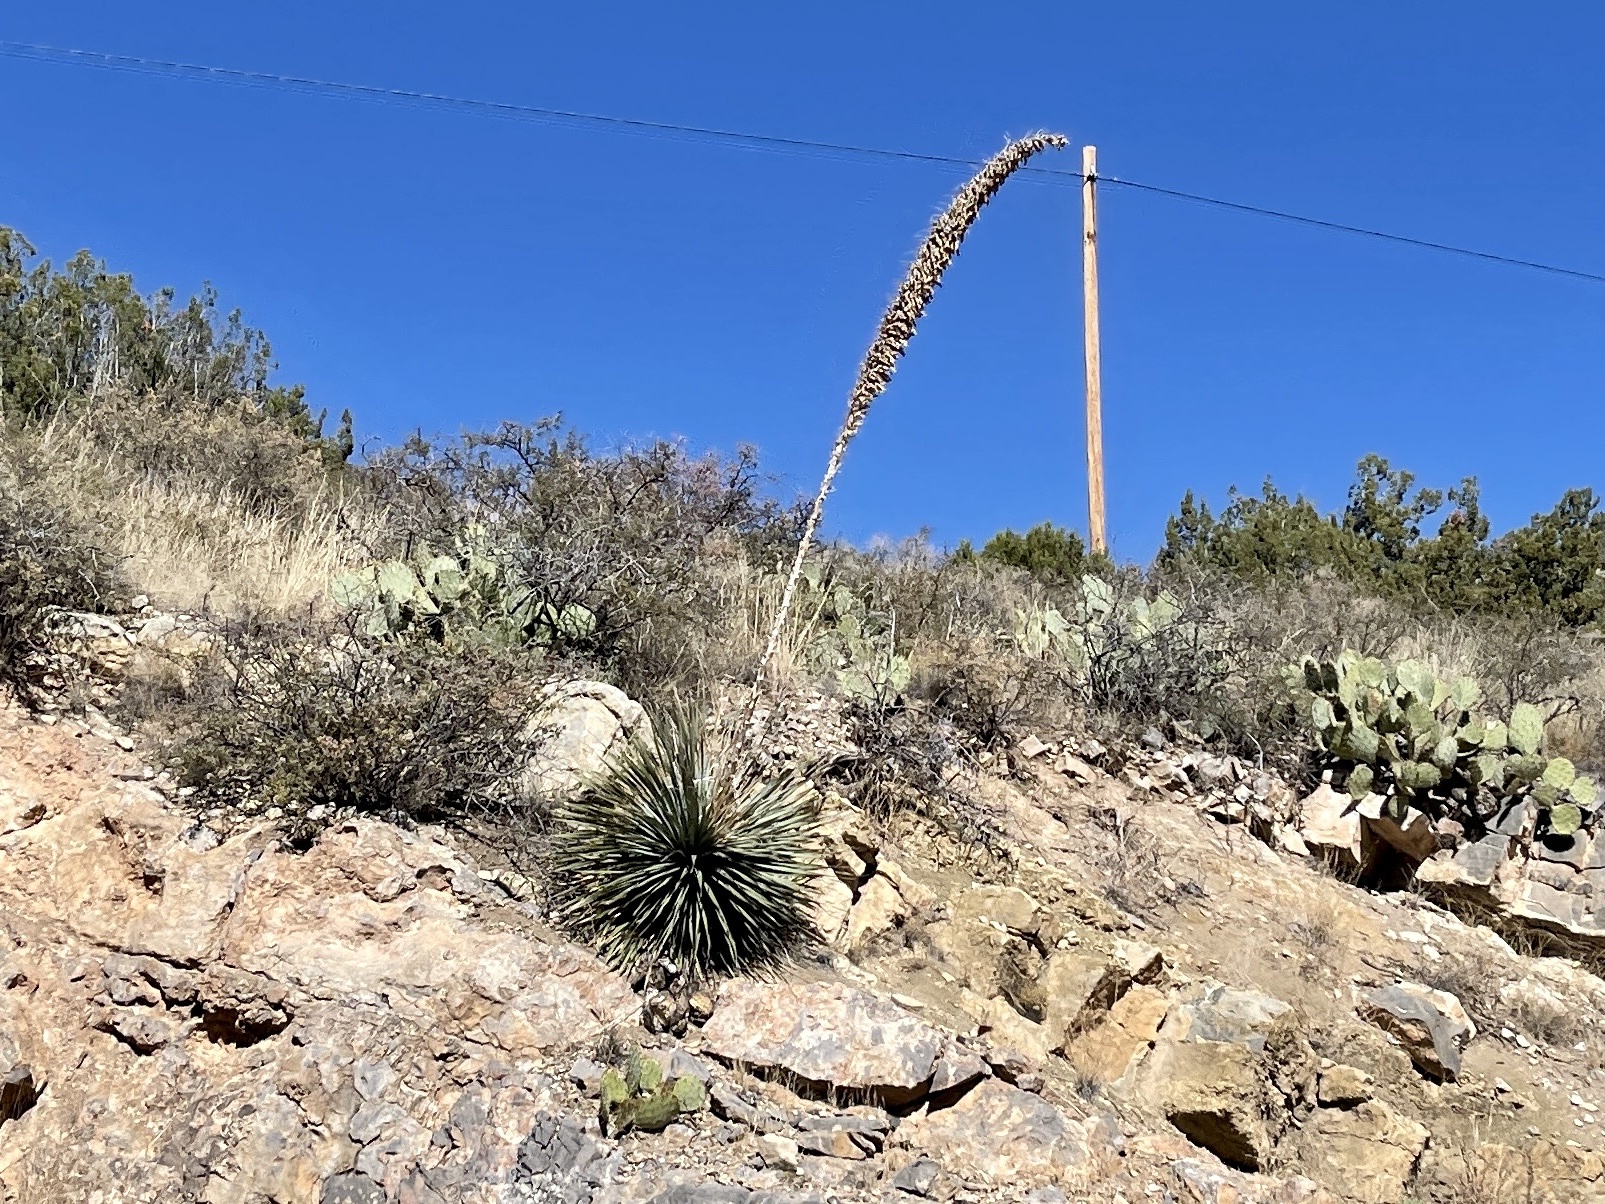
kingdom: Plantae
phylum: Tracheophyta
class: Liliopsida
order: Asparagales
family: Asparagaceae
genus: Dasylirion
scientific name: Dasylirion wheeleri
